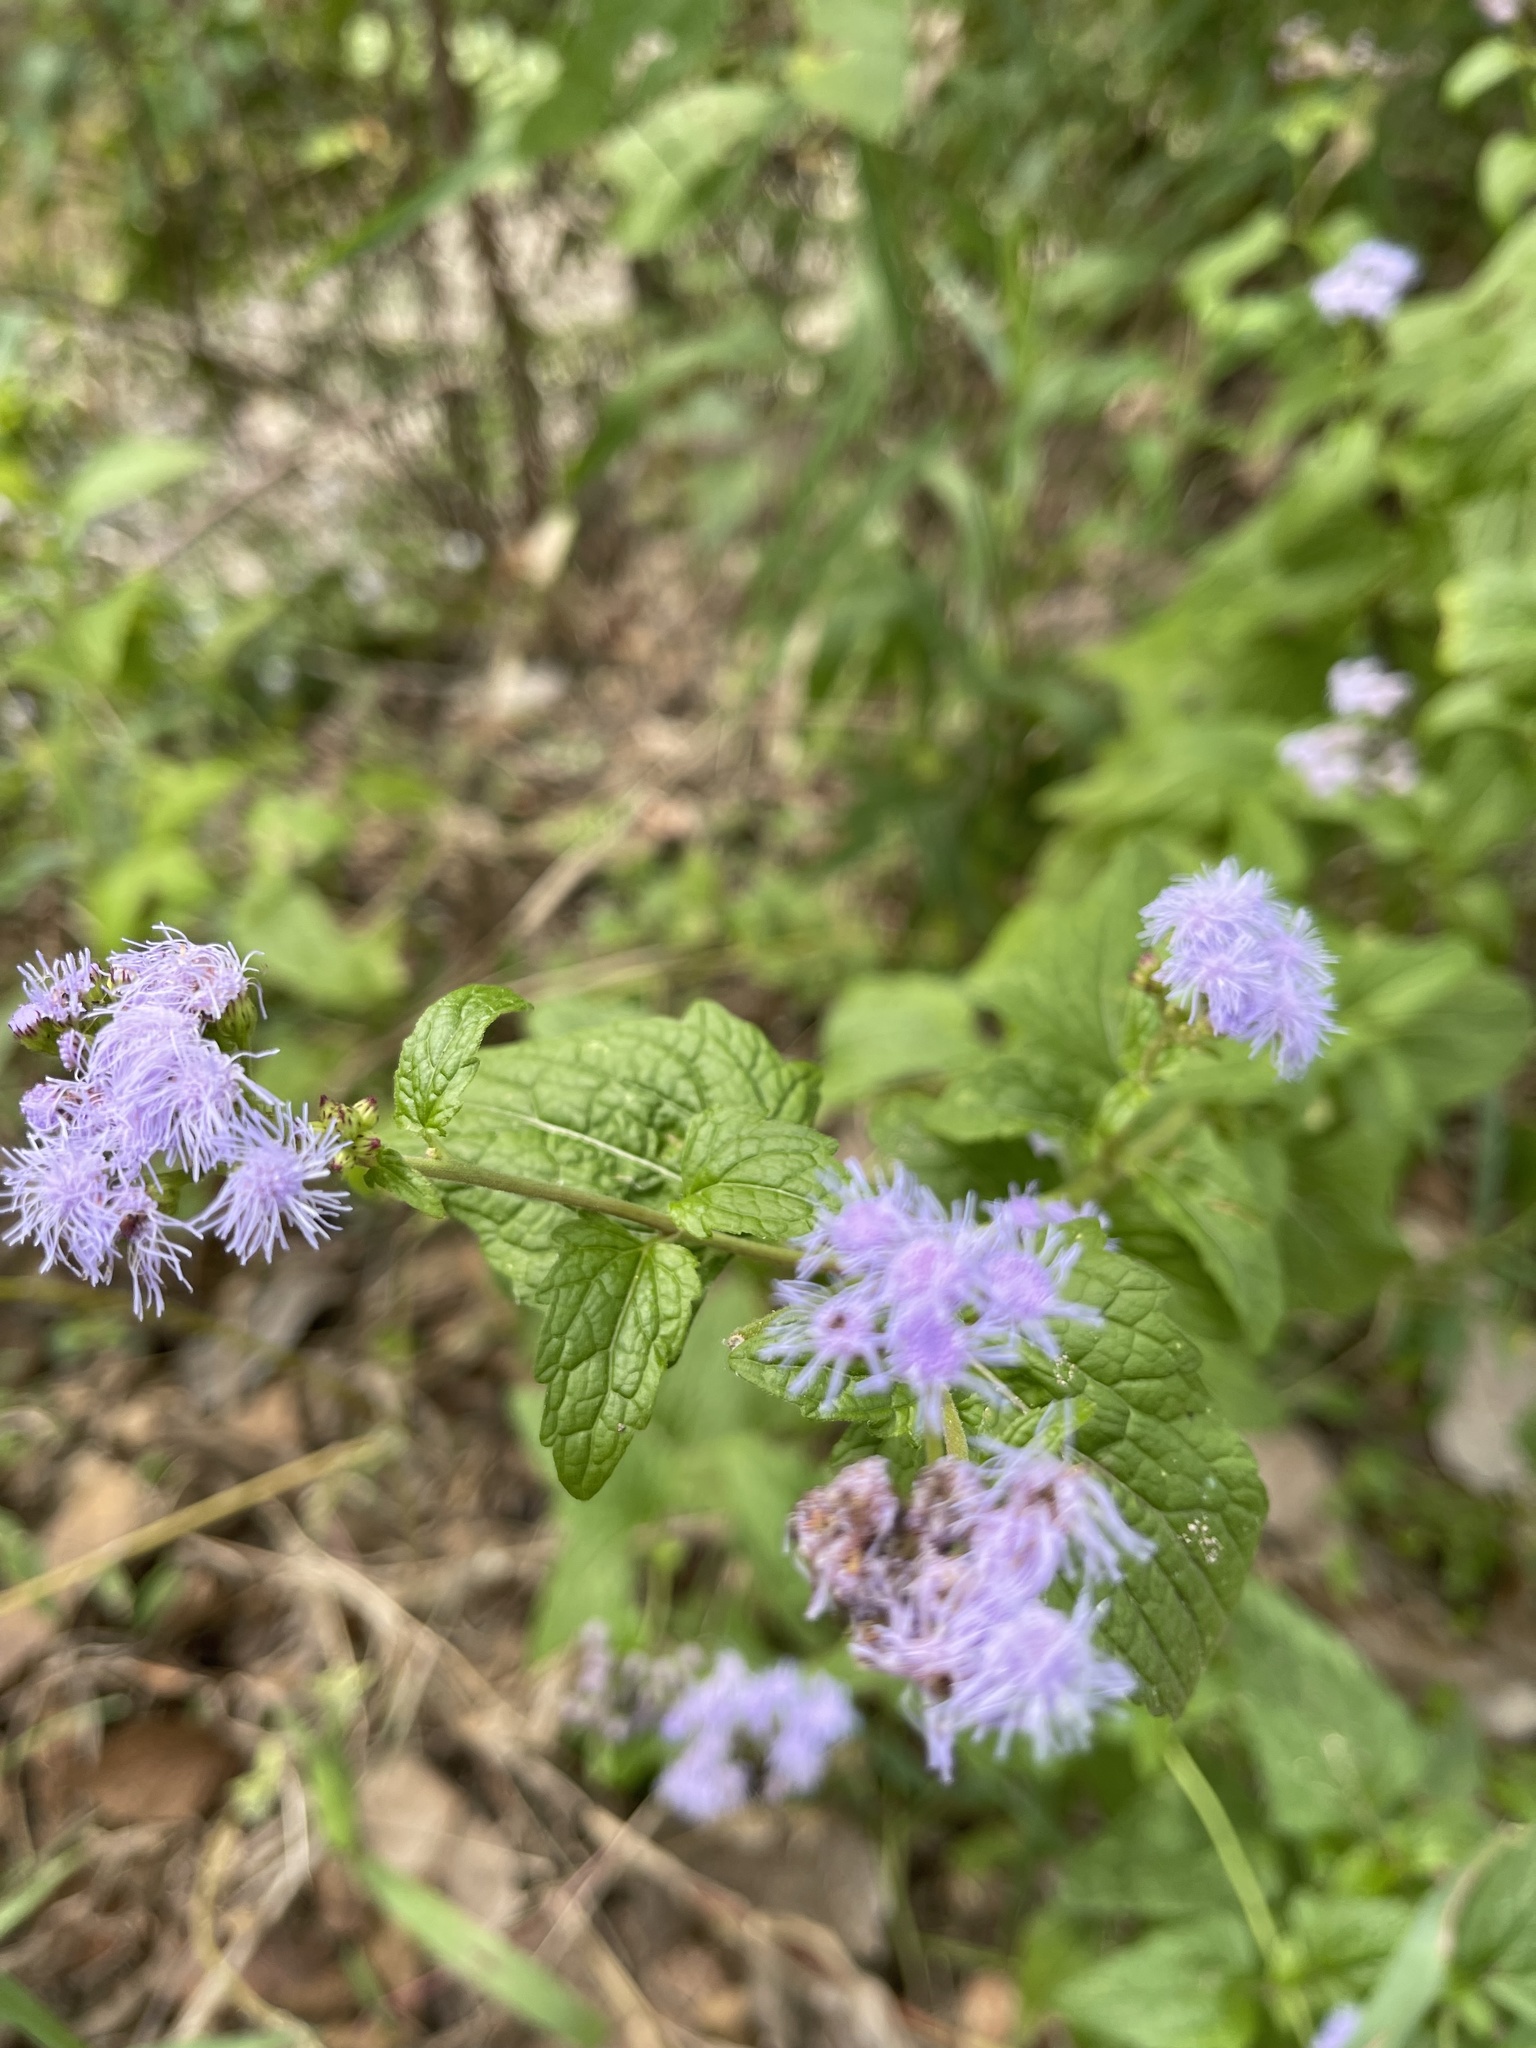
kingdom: Plantae
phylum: Tracheophyta
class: Magnoliopsida
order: Asterales
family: Asteraceae
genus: Conoclinium
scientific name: Conoclinium coelestinum
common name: Blue mistflower
